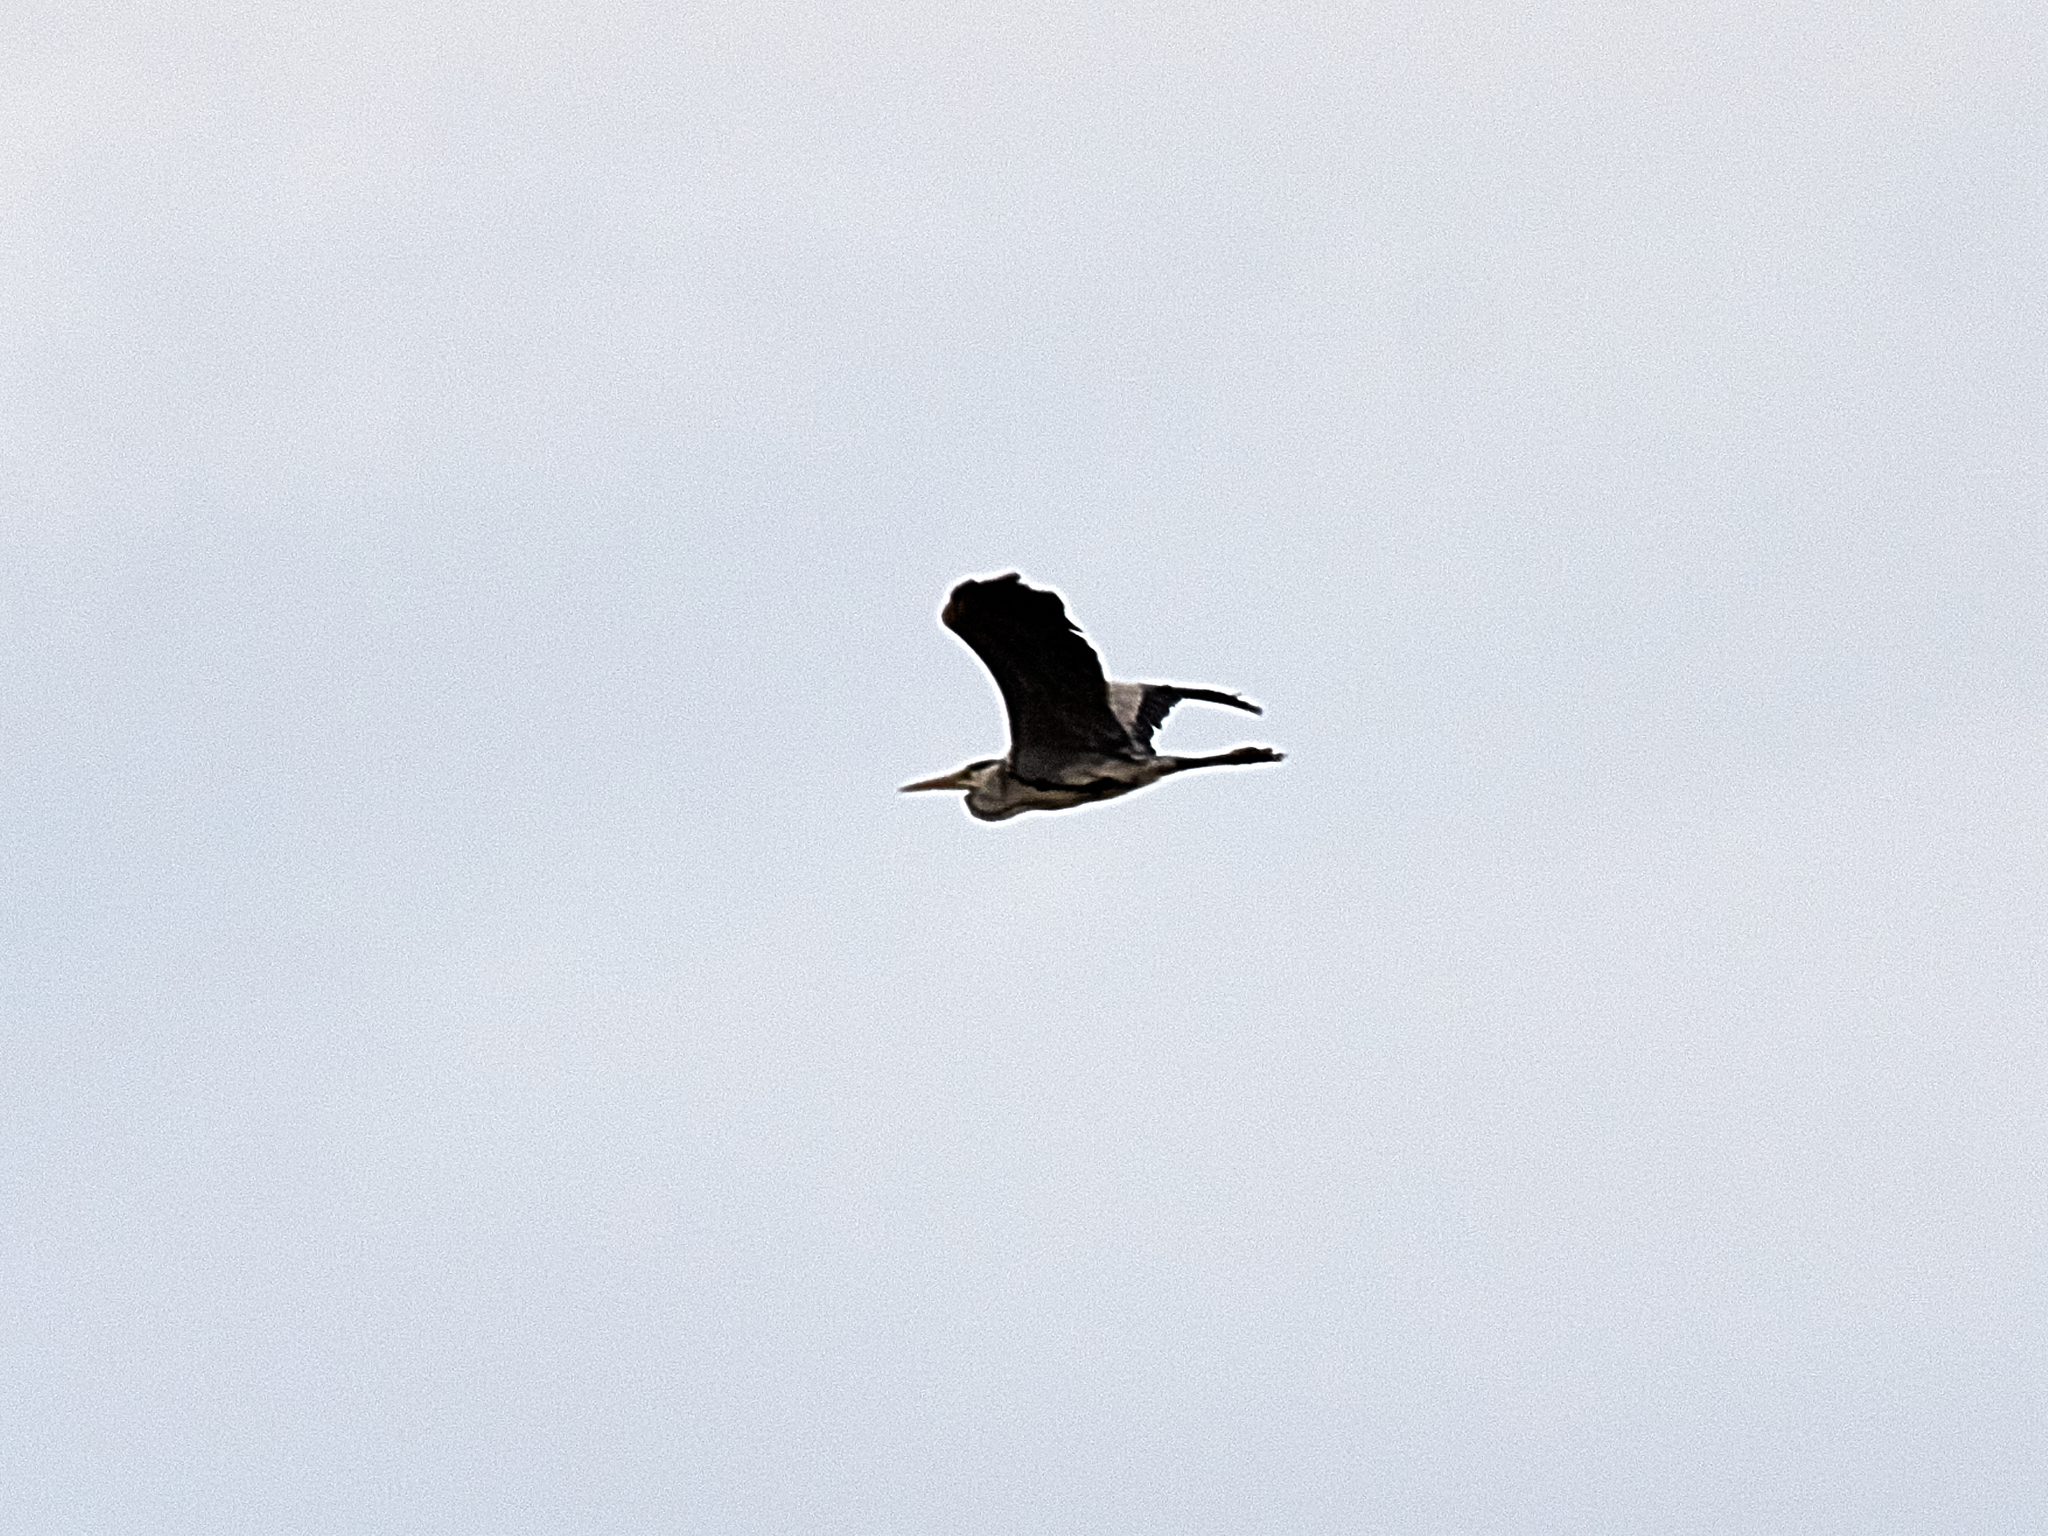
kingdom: Animalia
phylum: Chordata
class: Aves
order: Pelecaniformes
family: Ardeidae
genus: Ardea
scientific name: Ardea cinerea
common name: Grey heron
